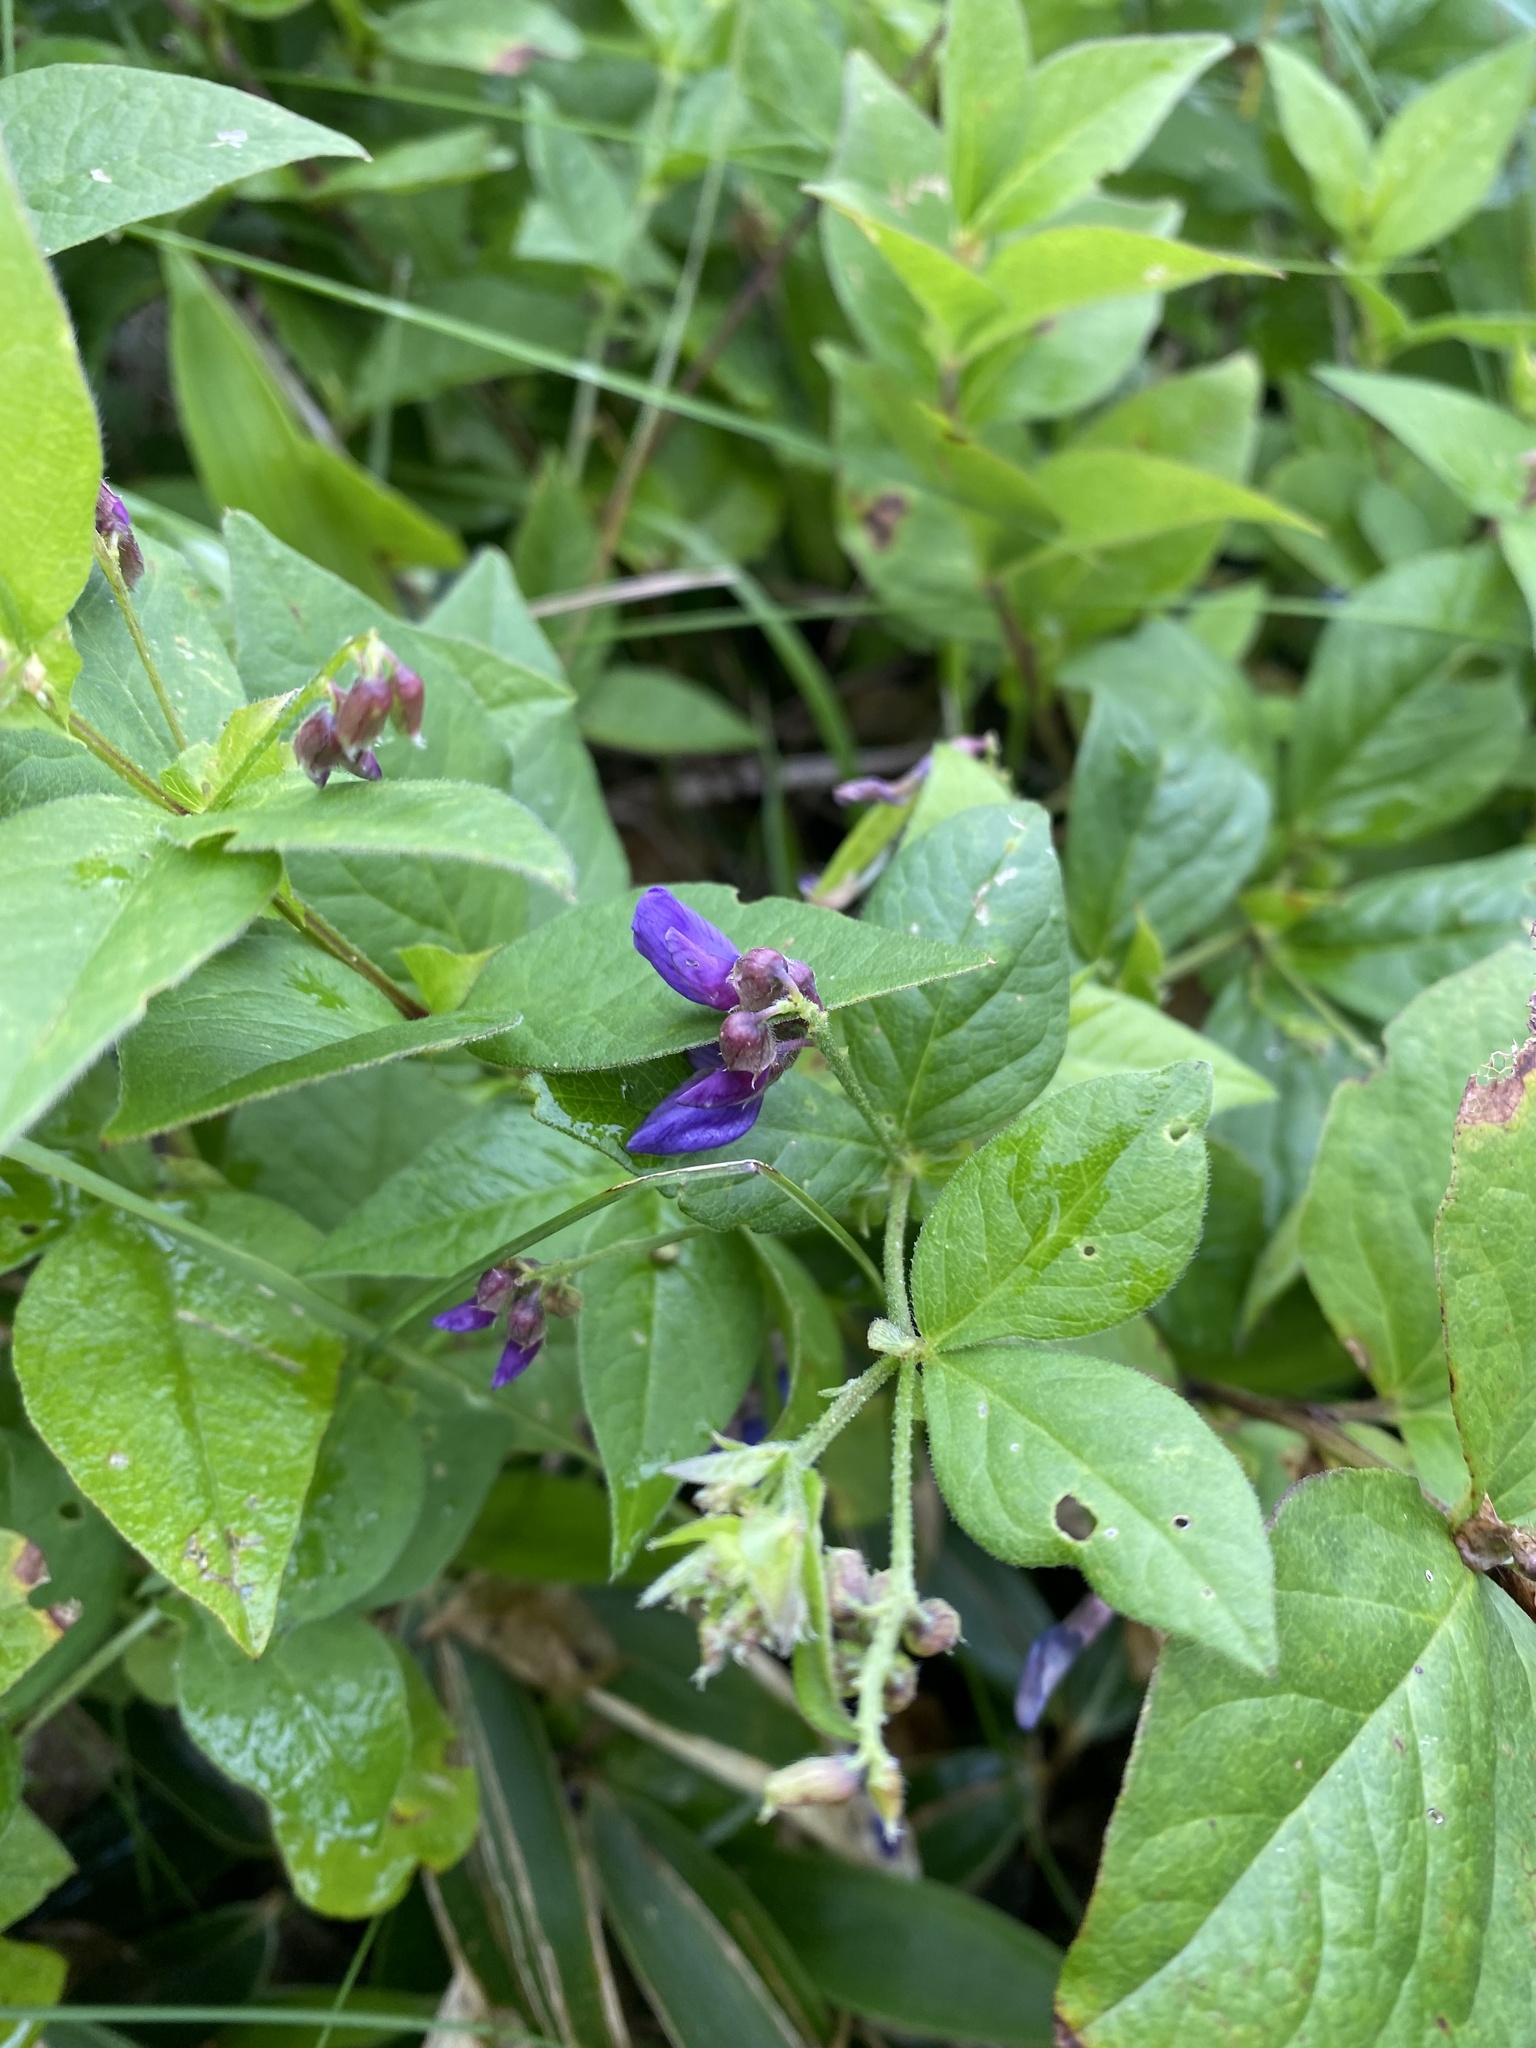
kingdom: Plantae
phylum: Tracheophyta
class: Magnoliopsida
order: Fabales
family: Fabaceae
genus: Vicia
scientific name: Vicia unijuga
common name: Two-leaf vetch
